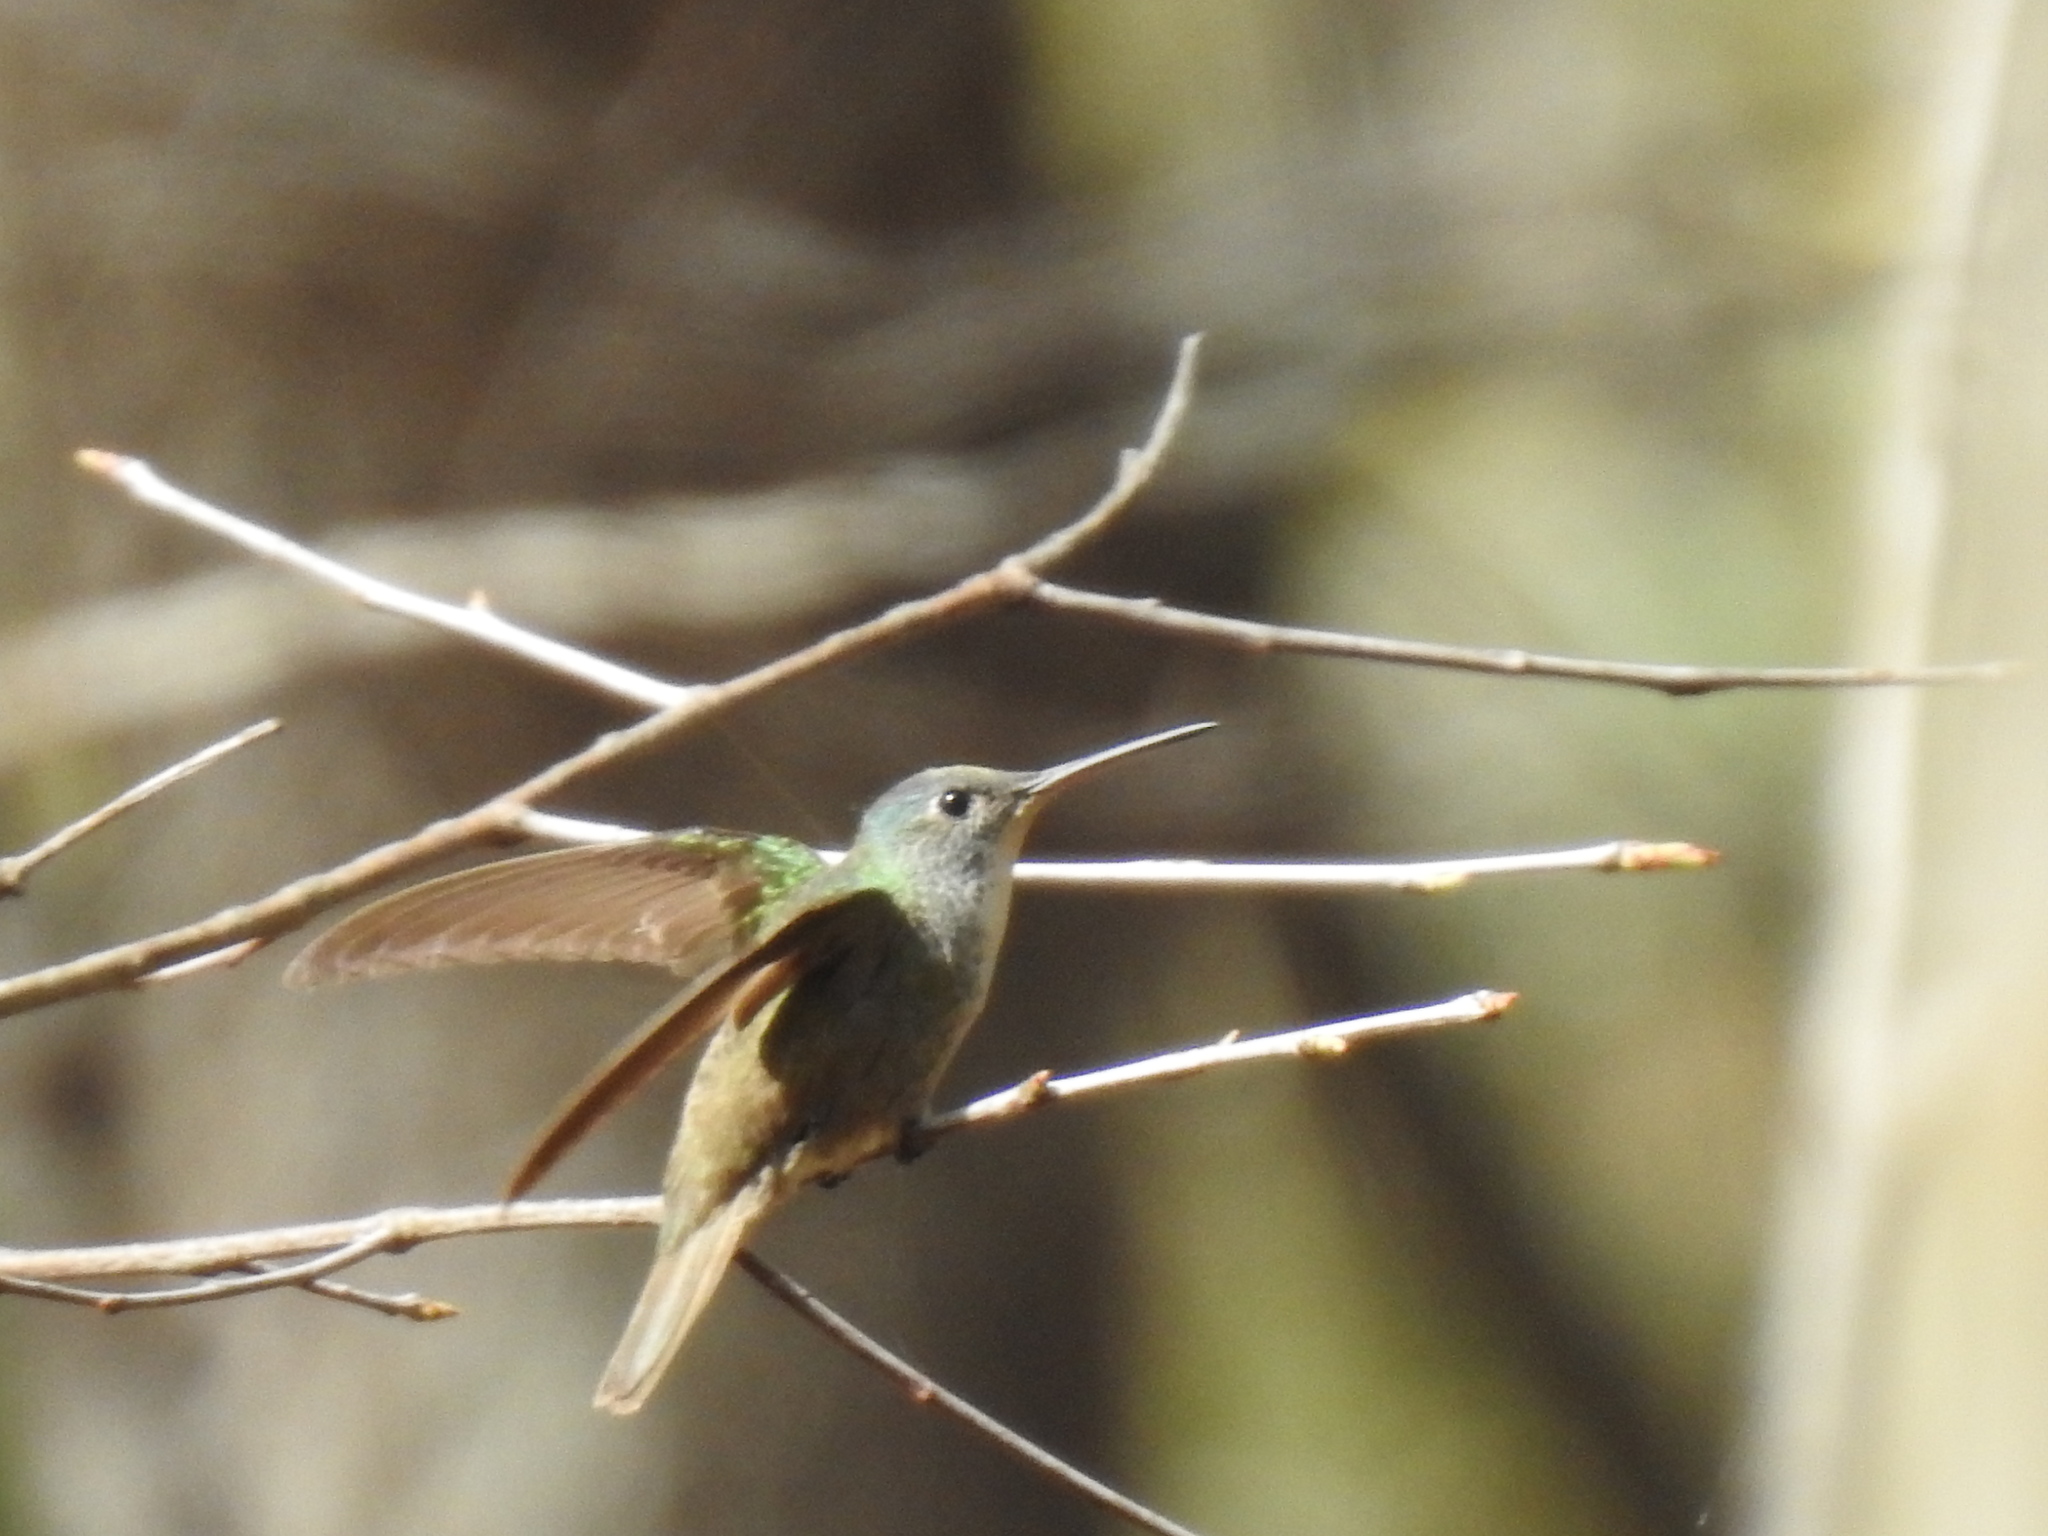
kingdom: Animalia
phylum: Chordata
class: Aves
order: Apodiformes
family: Trochilidae
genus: Saucerottia
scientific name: Saucerottia cyanocephala
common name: Azure-crowned hummingbird
